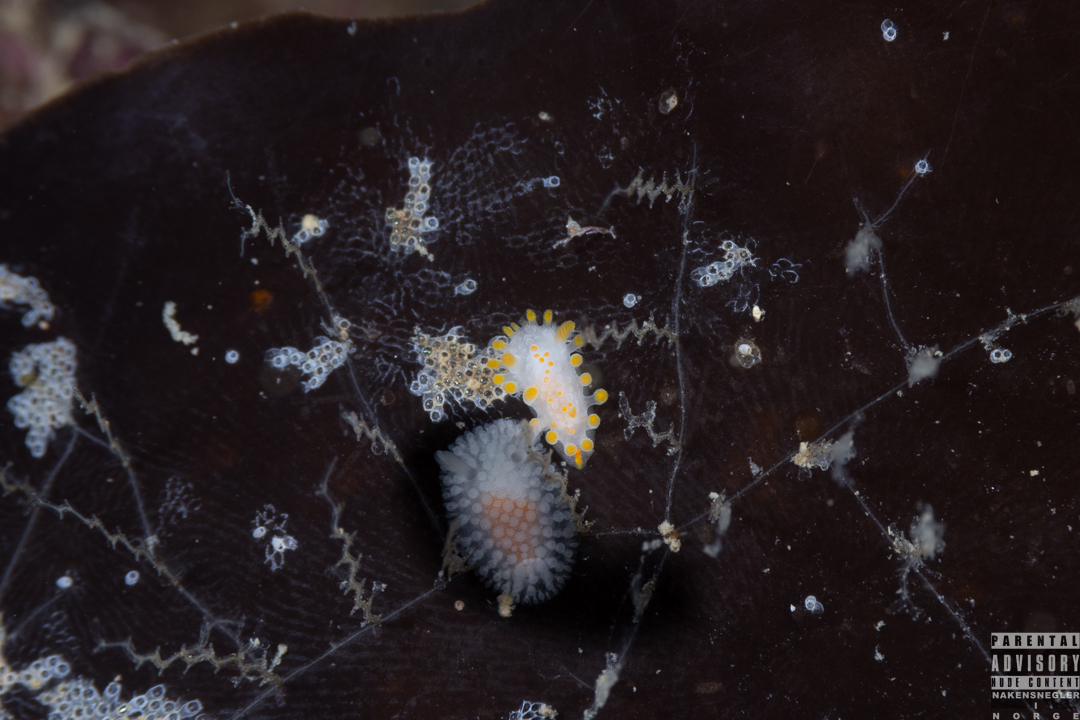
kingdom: Animalia
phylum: Mollusca
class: Gastropoda
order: Nudibranchia
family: Polyceridae
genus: Limacia
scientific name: Limacia clavigera
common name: Orange-clubbed sea slug
